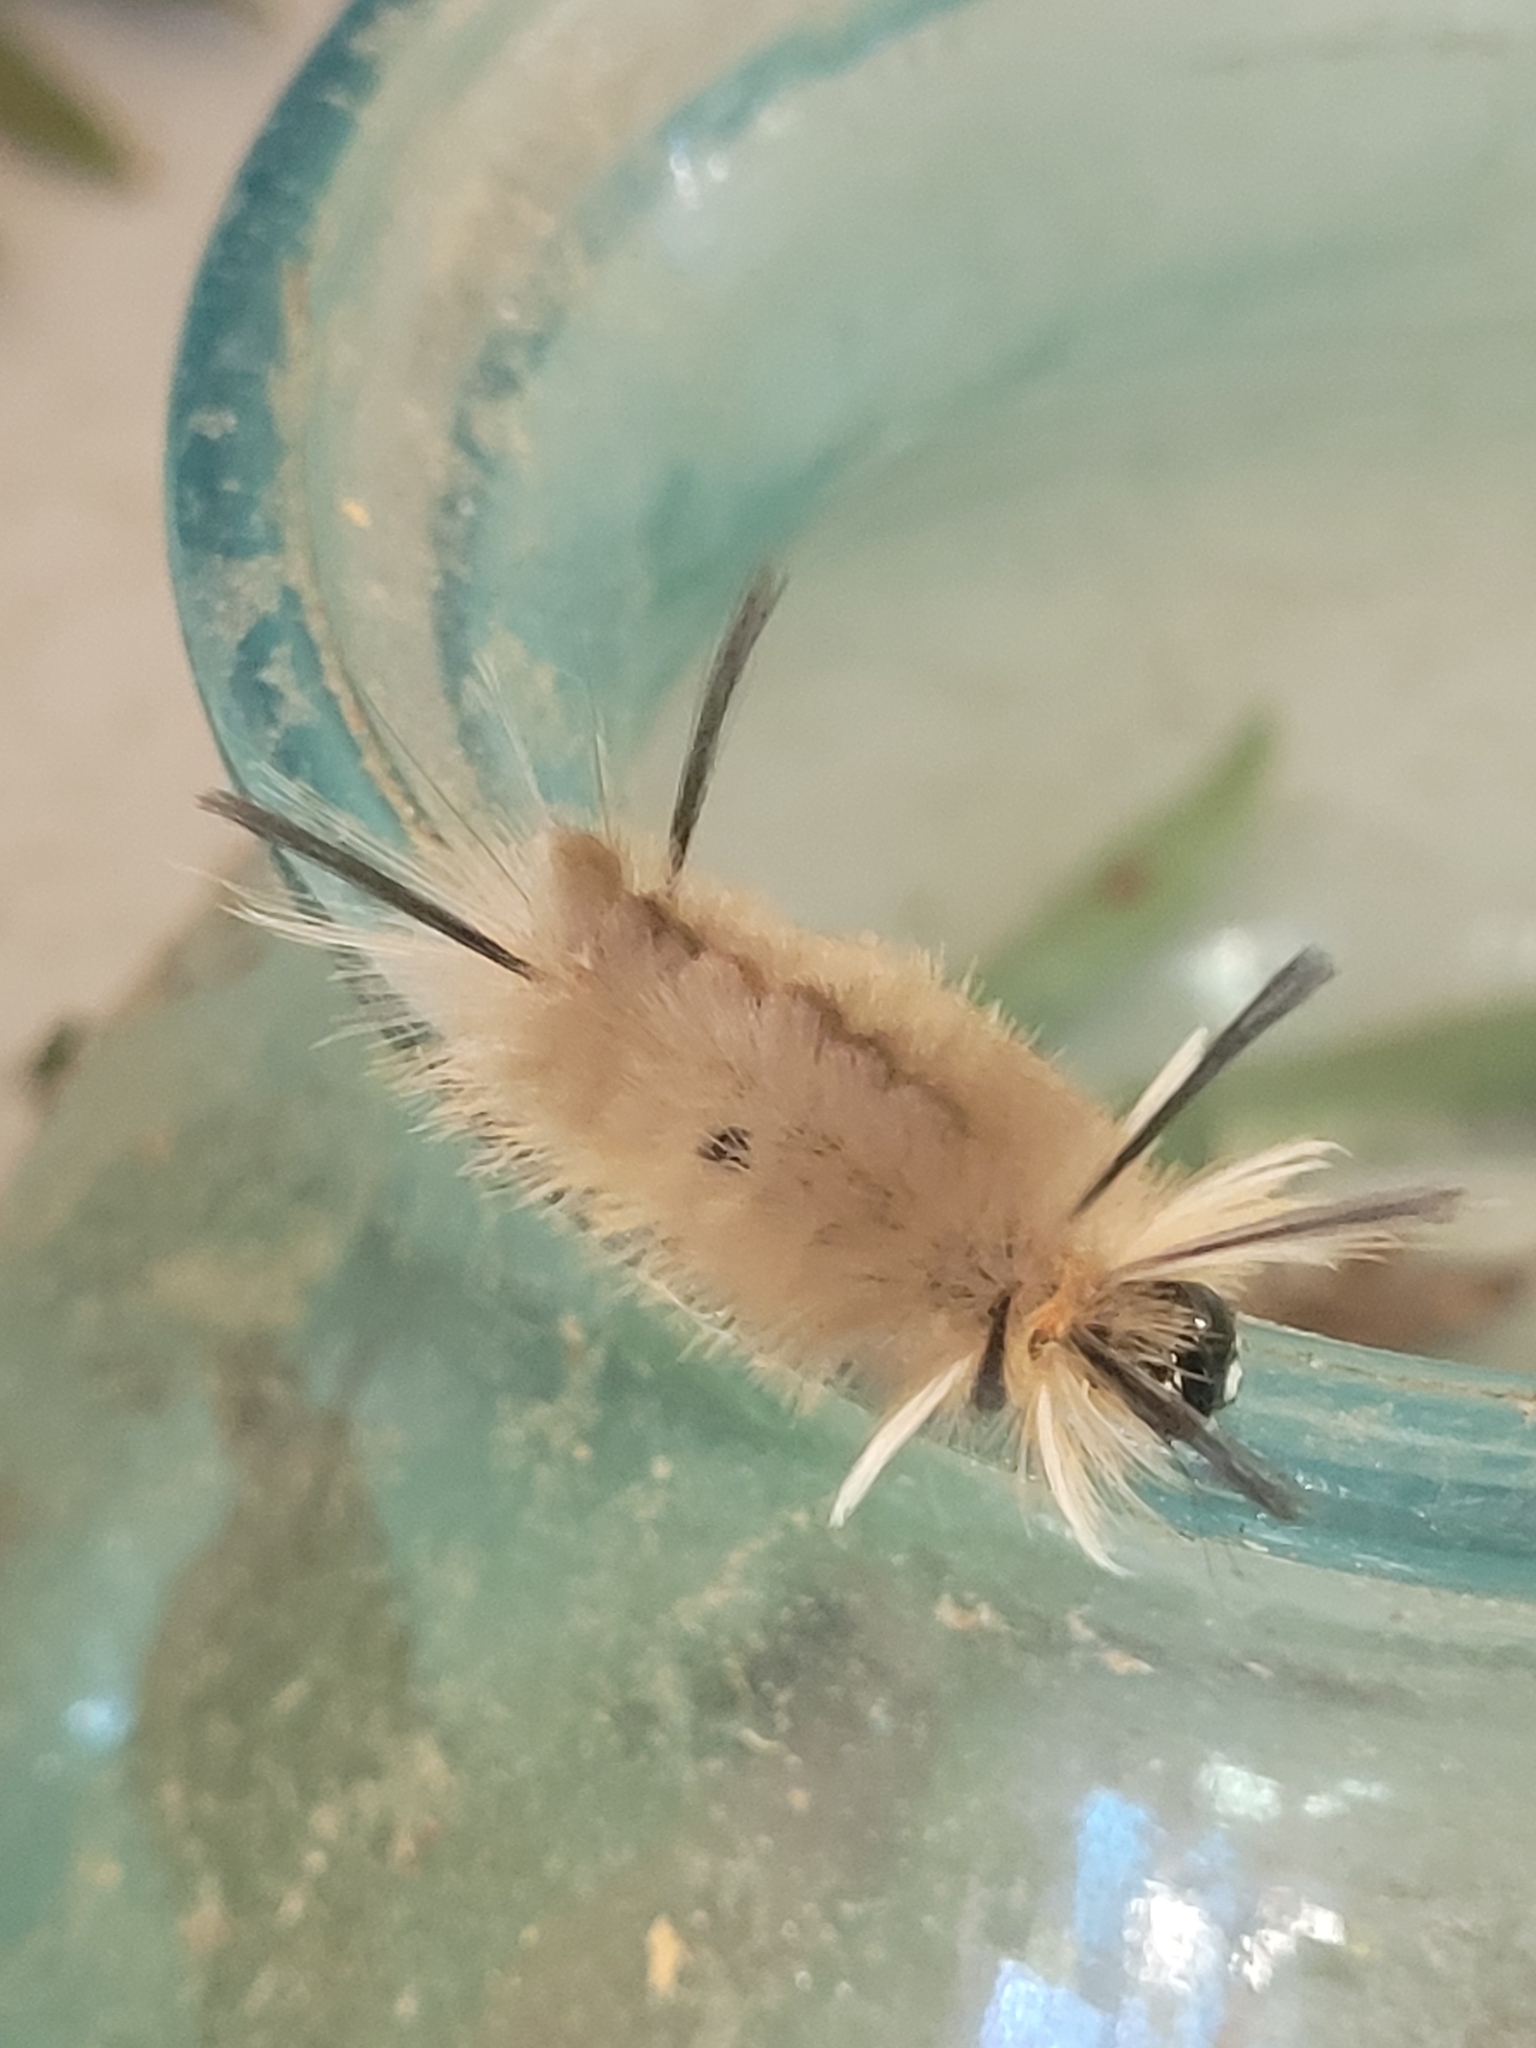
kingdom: Animalia
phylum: Arthropoda
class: Insecta
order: Lepidoptera
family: Erebidae
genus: Halysidota
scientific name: Halysidota tessellaris
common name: Banded tussock moth
